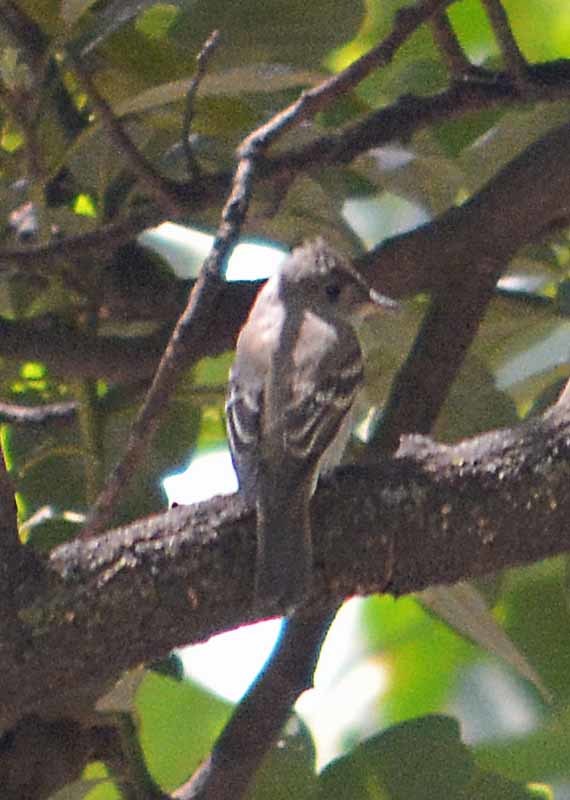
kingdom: Animalia
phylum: Chordata
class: Aves
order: Passeriformes
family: Tyrannidae
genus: Contopus
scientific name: Contopus sordidulus
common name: Western wood-pewee
